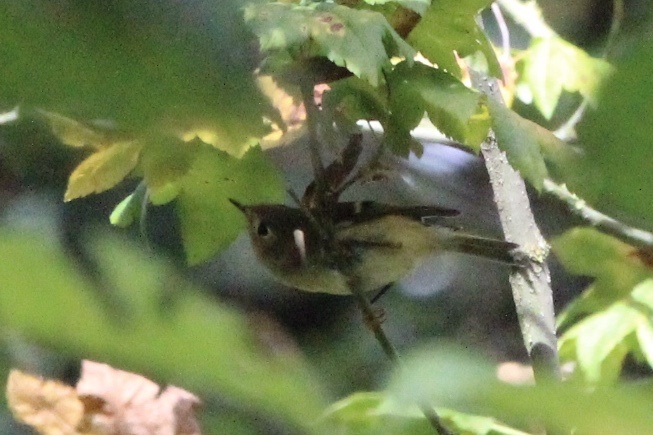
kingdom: Animalia
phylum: Chordata
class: Aves
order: Passeriformes
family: Regulidae
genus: Regulus
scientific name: Regulus calendula
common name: Ruby-crowned kinglet
